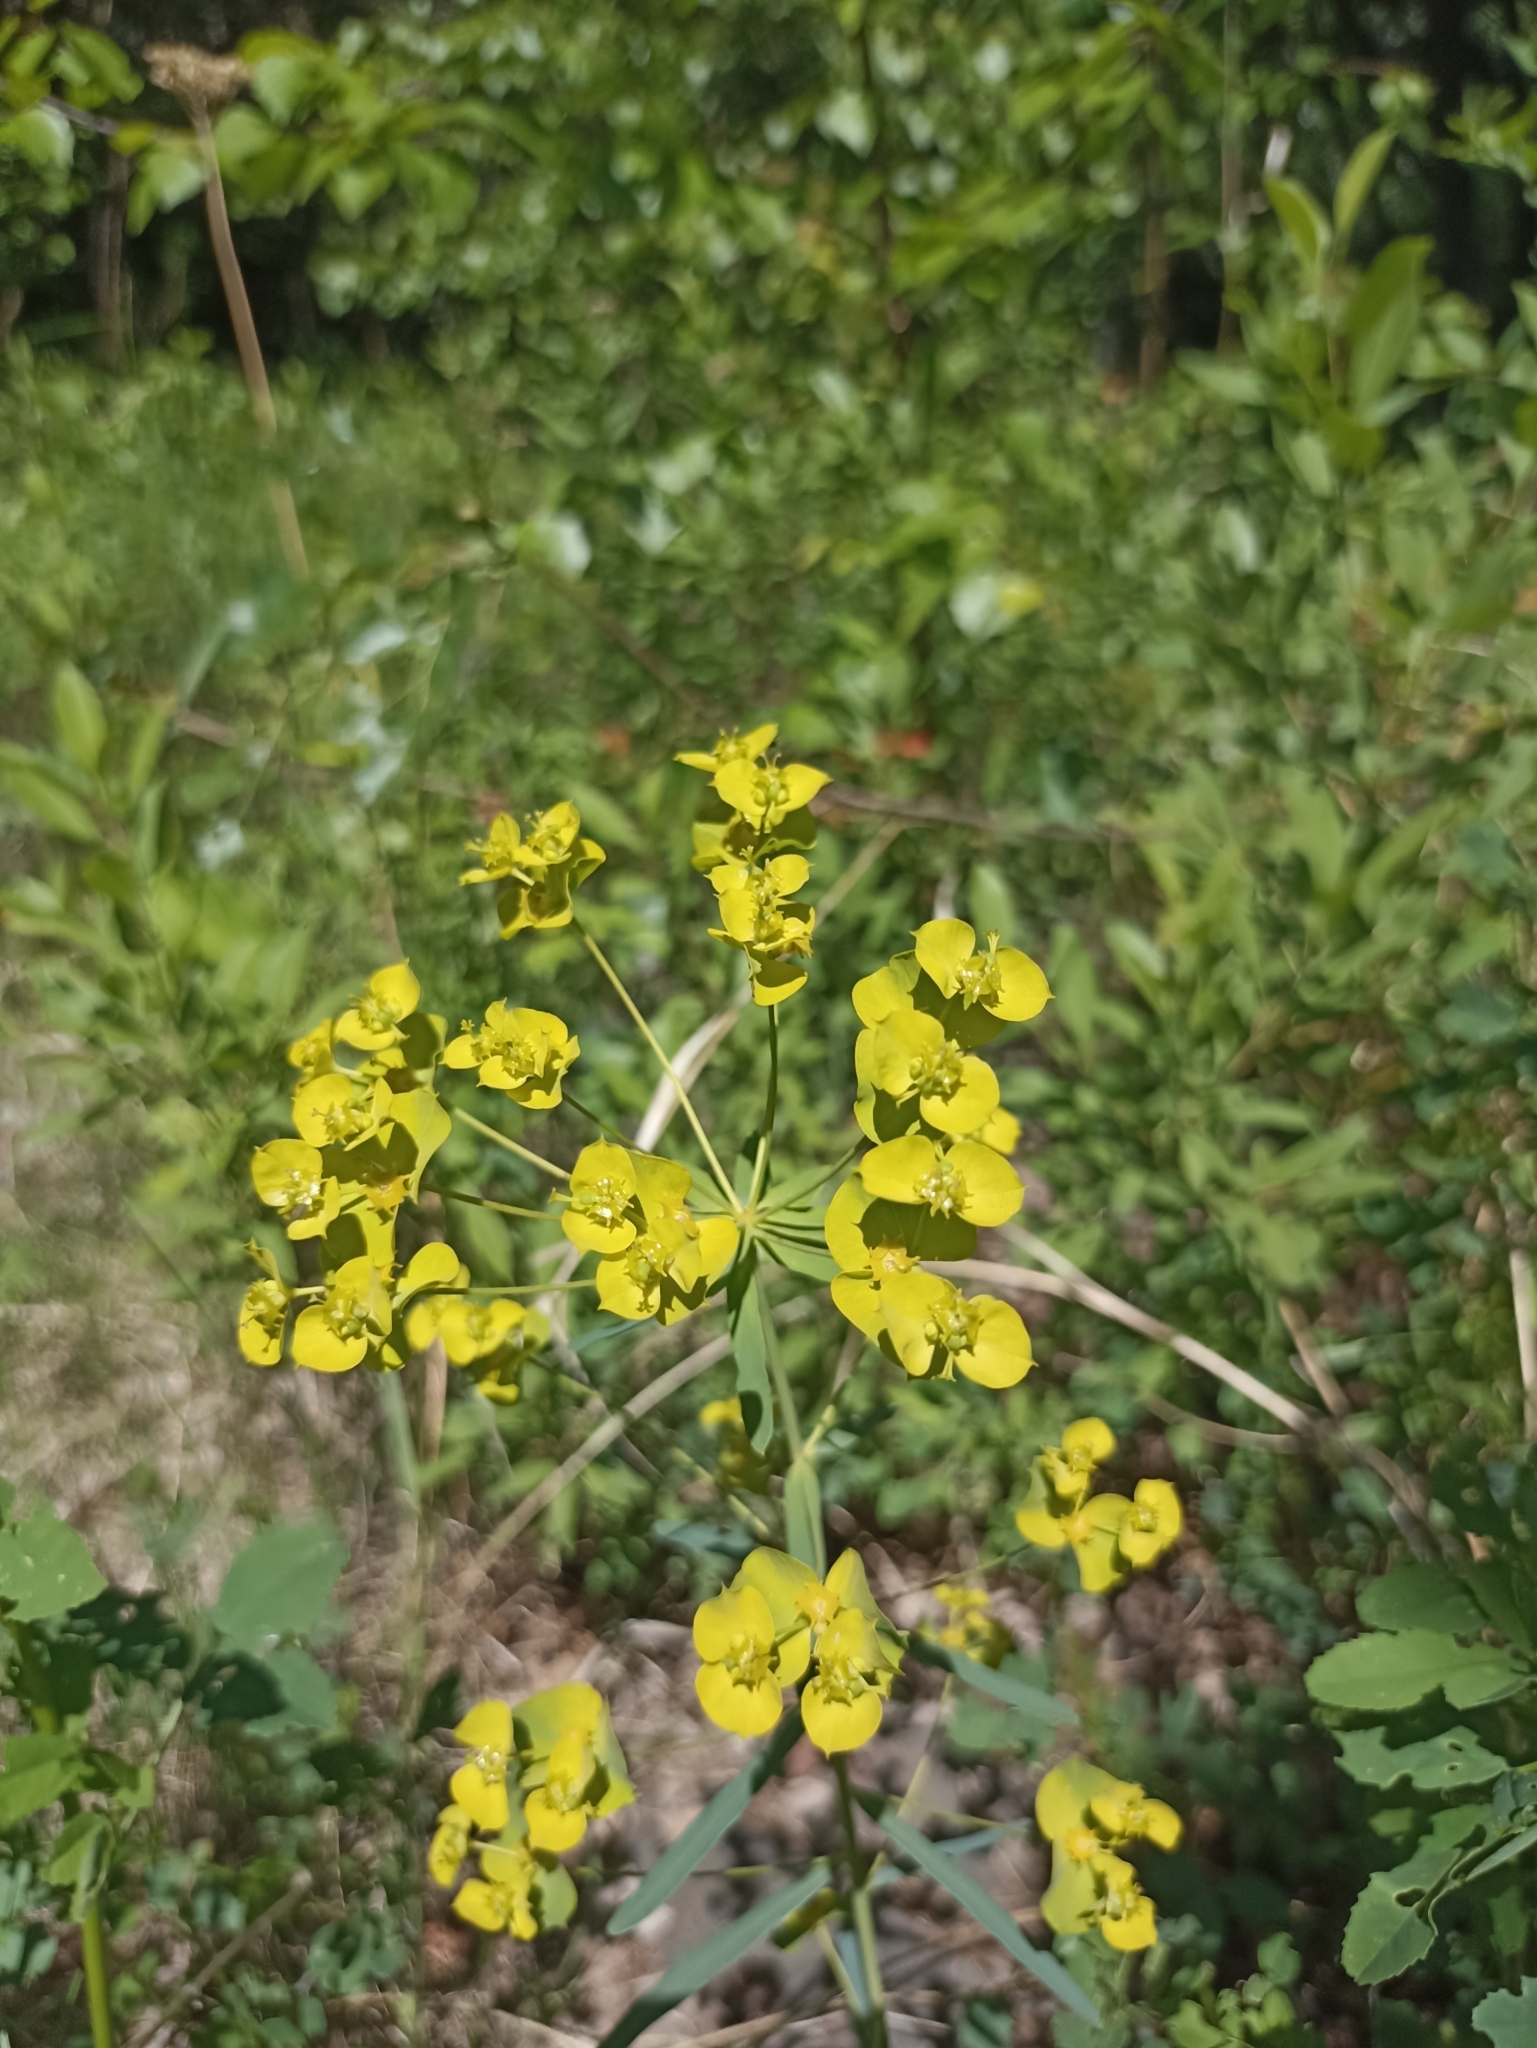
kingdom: Plantae
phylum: Tracheophyta
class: Magnoliopsida
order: Malpighiales
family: Euphorbiaceae
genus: Euphorbia
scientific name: Euphorbia virgata
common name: Leafy spurge
